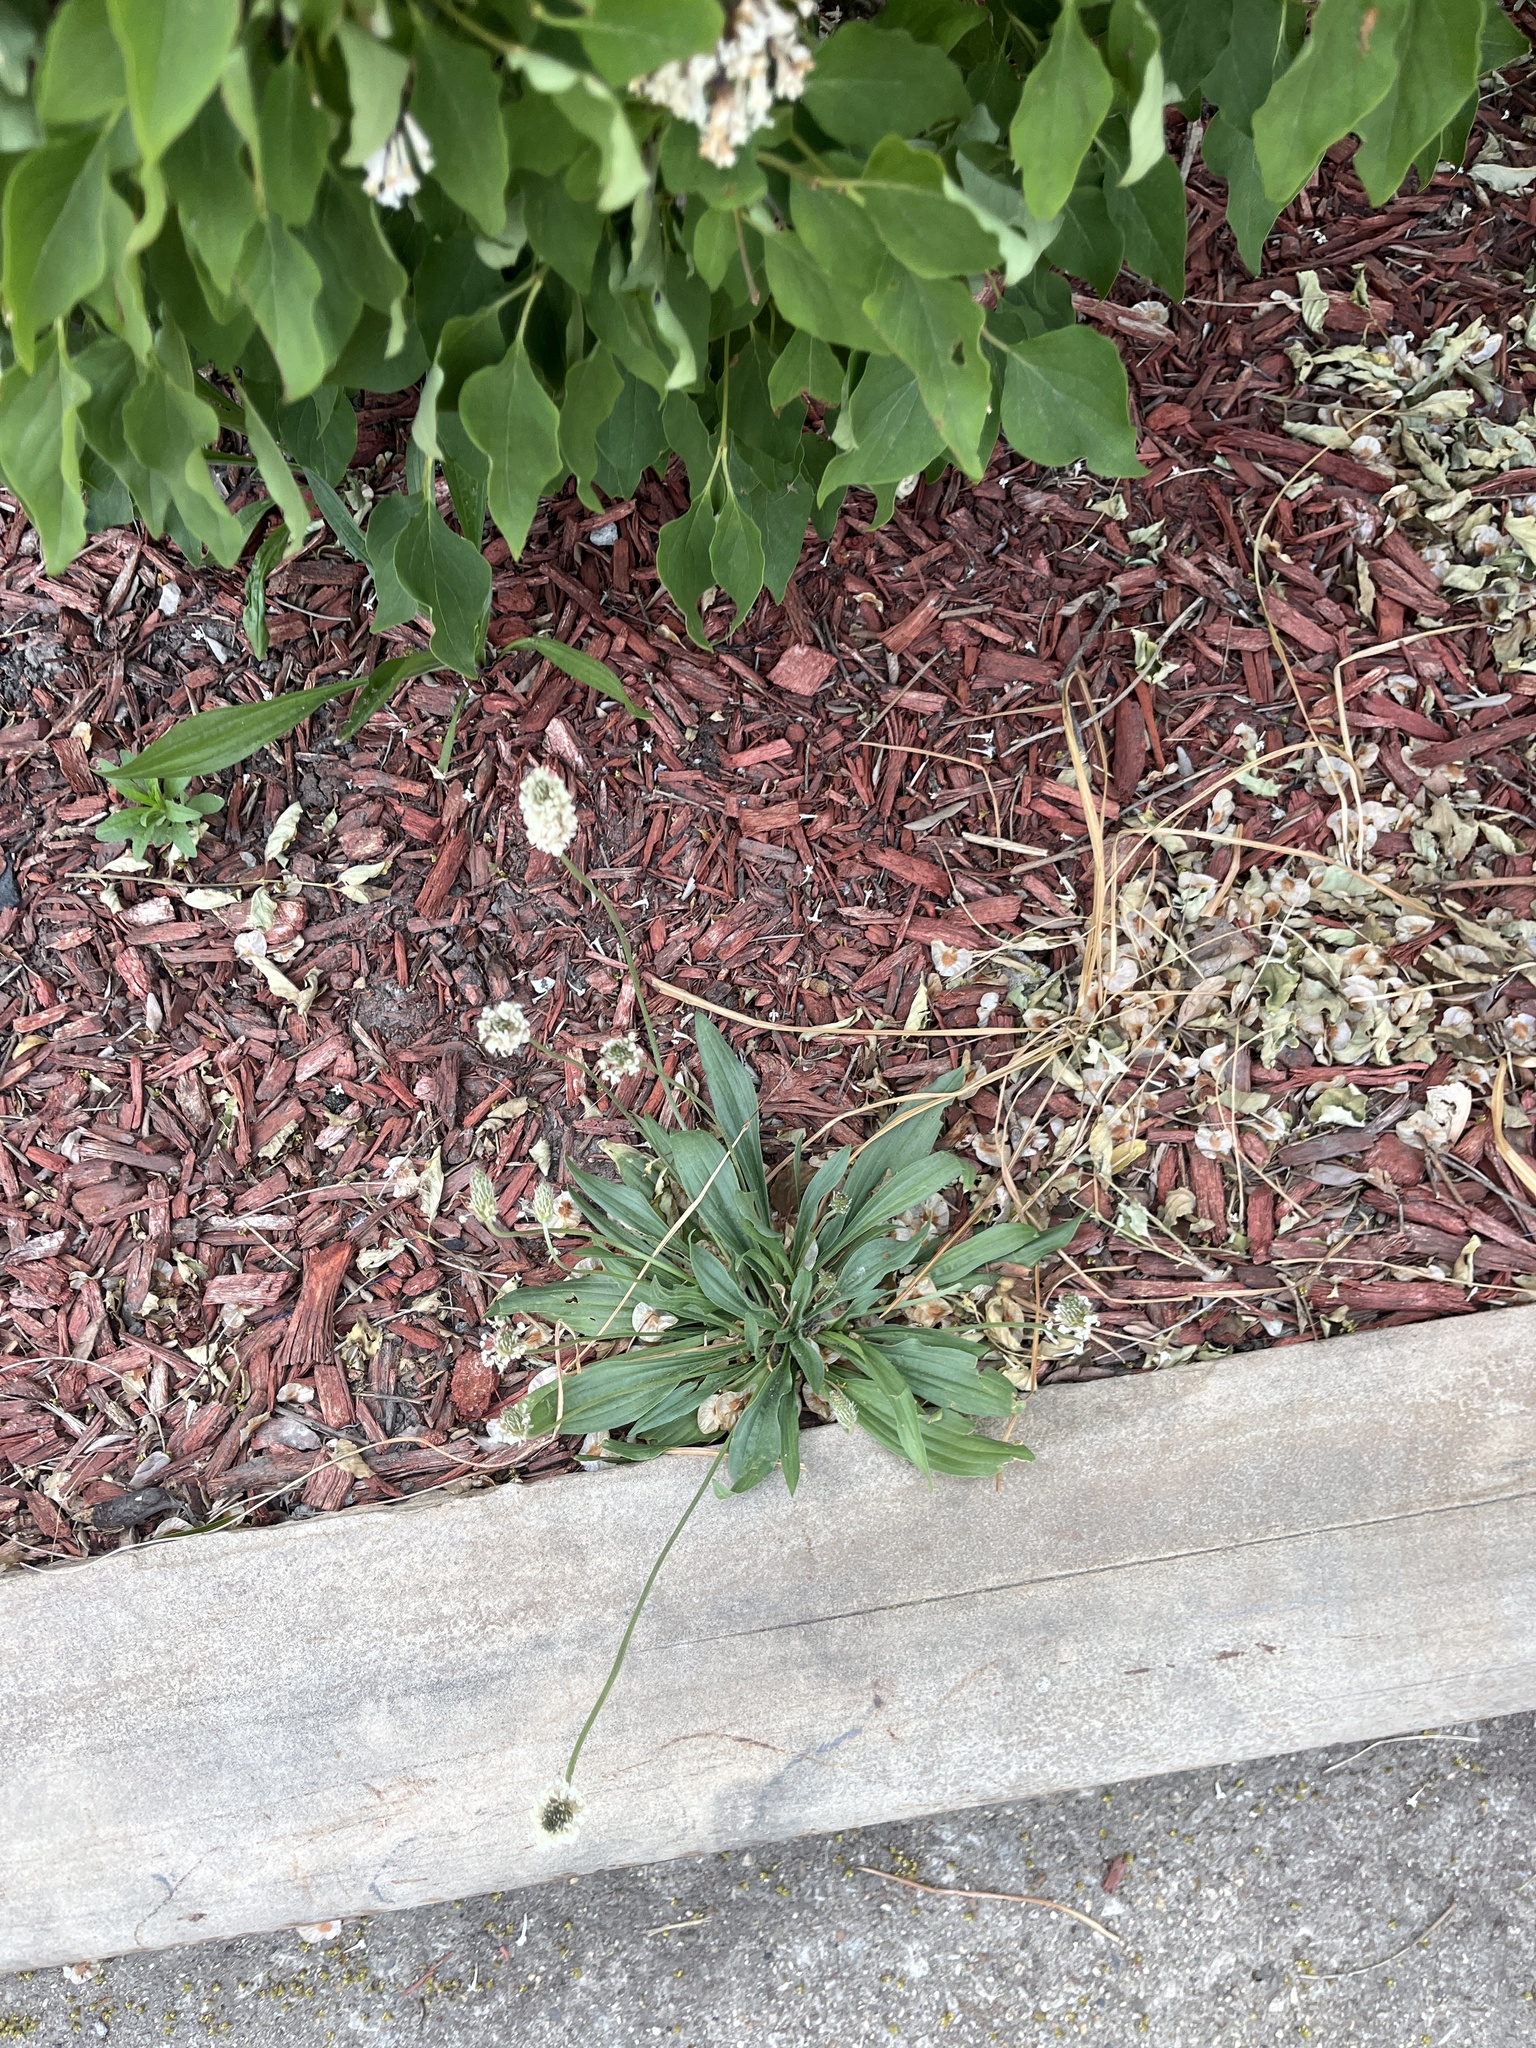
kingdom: Plantae
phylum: Tracheophyta
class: Magnoliopsida
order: Lamiales
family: Plantaginaceae
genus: Plantago
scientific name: Plantago lanceolata
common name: Ribwort plantain
